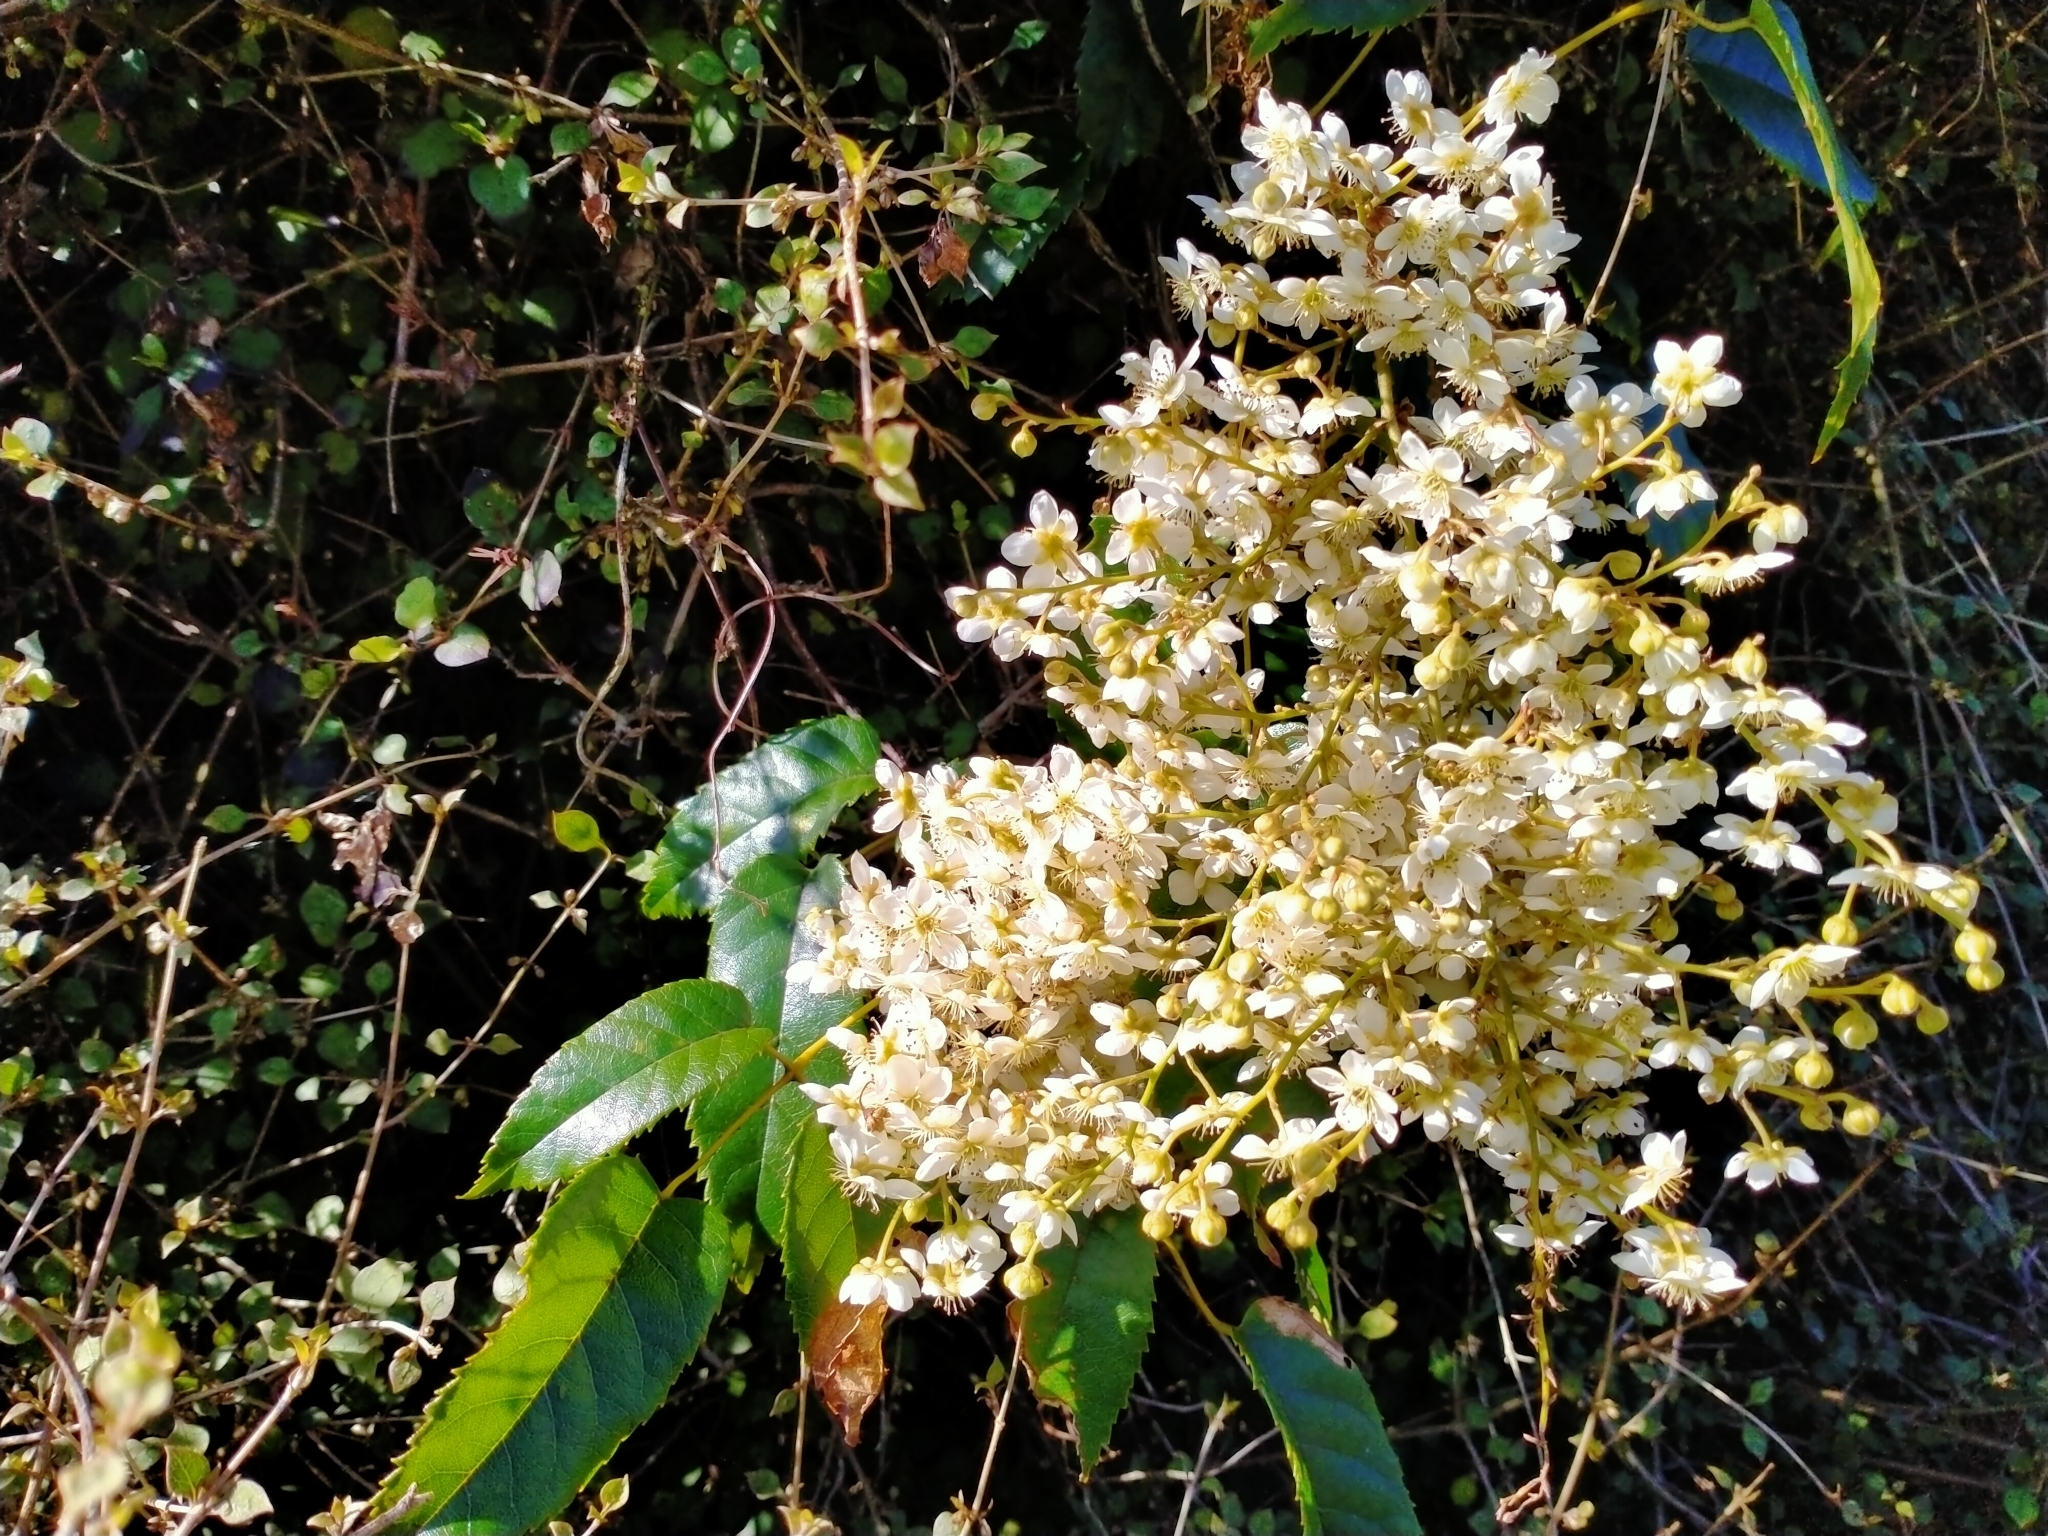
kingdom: Plantae
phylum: Tracheophyta
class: Magnoliopsida
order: Rosales
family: Rosaceae
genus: Rubus
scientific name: Rubus cissoides
